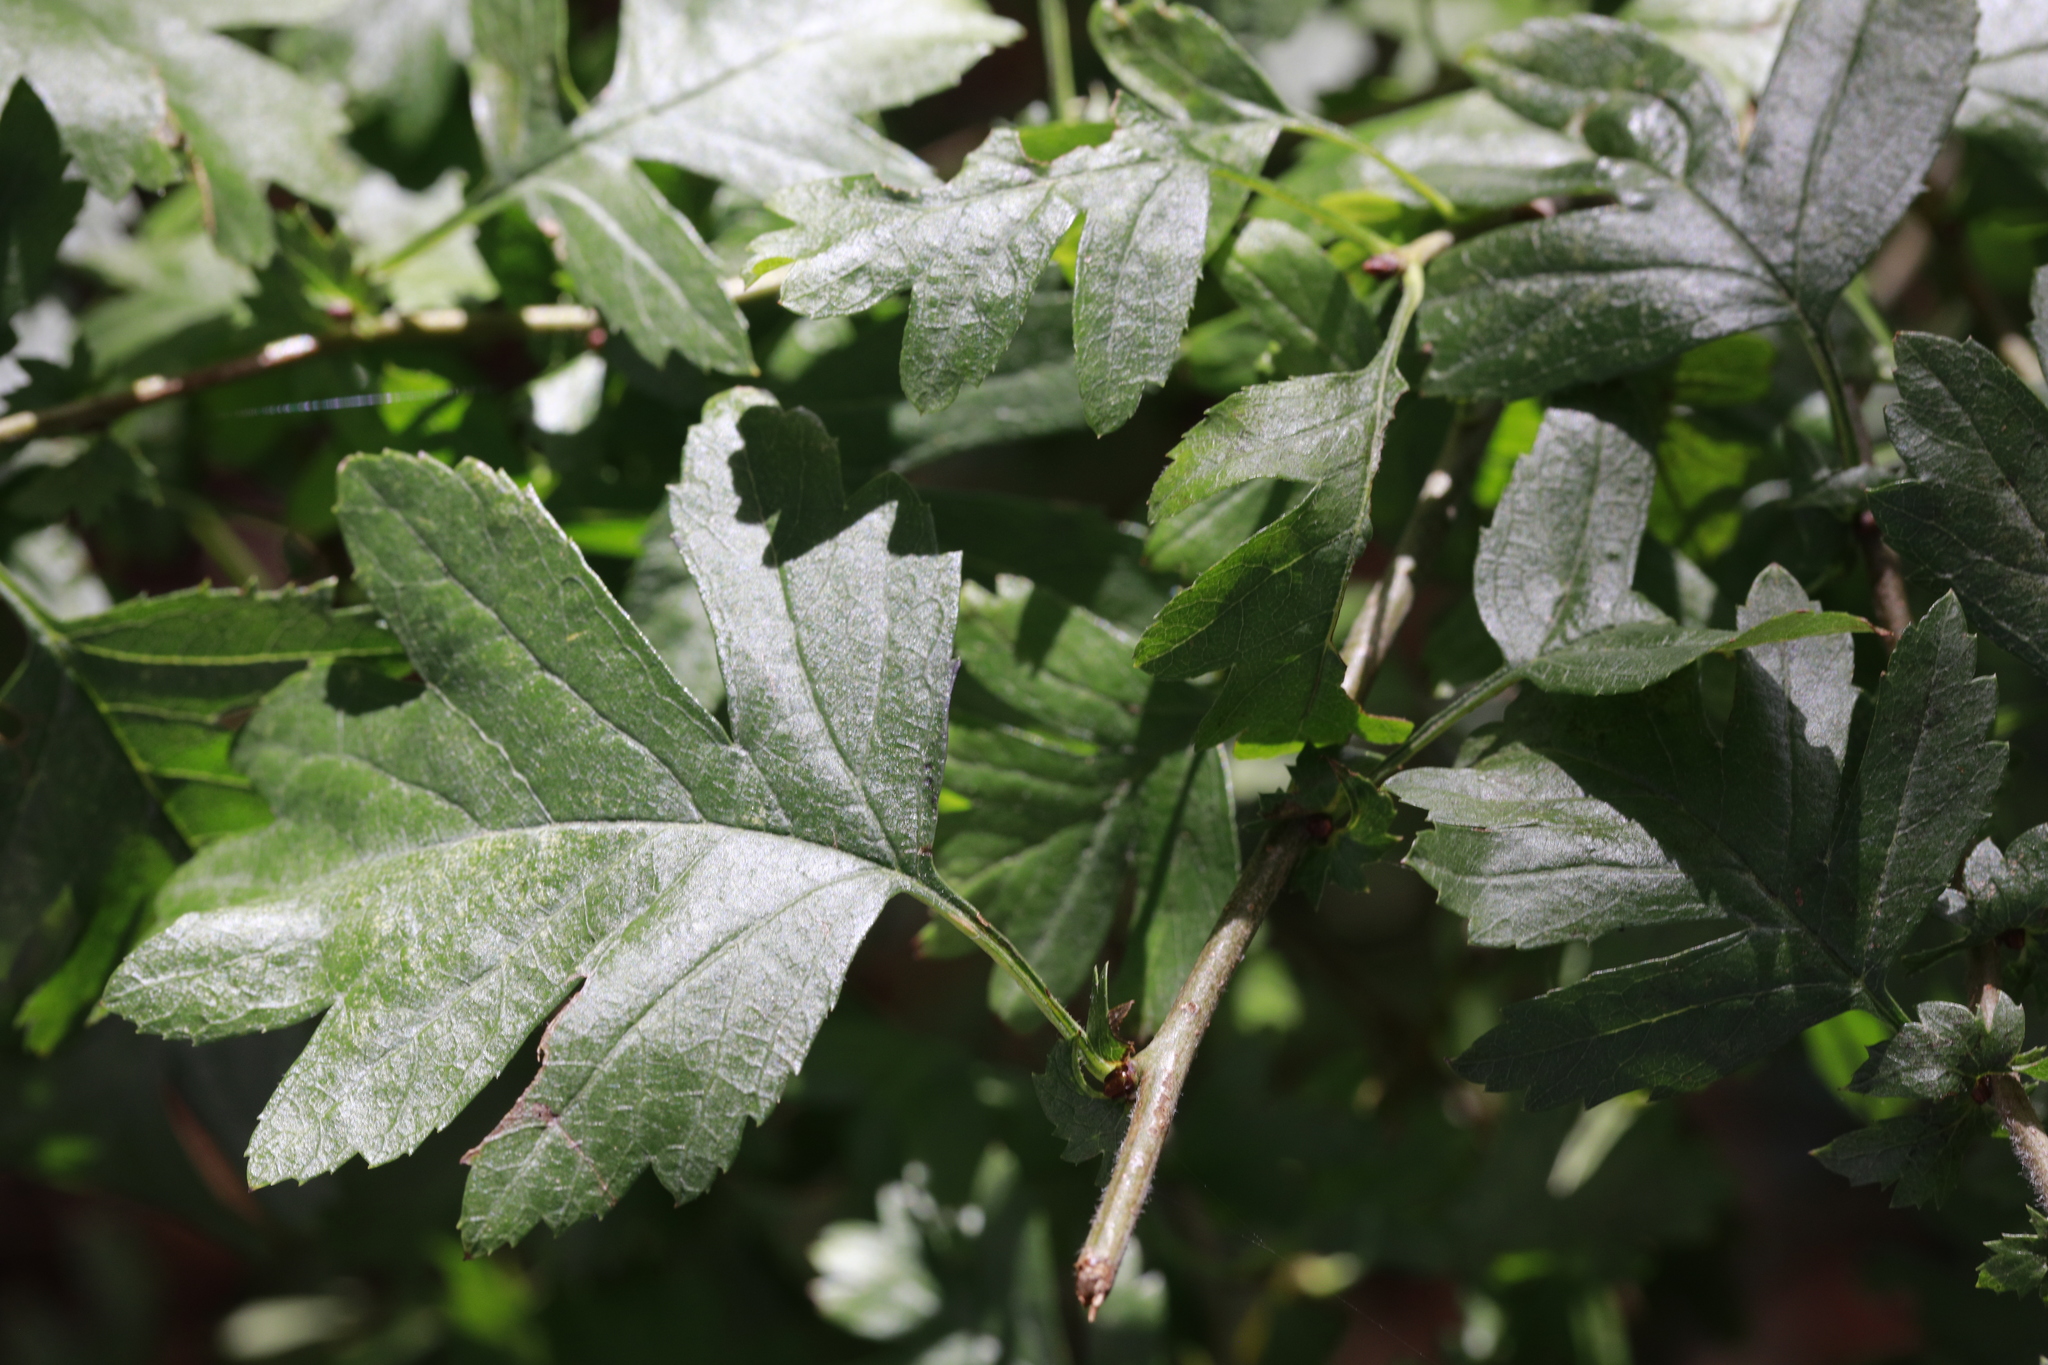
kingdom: Plantae
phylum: Tracheophyta
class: Magnoliopsida
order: Rosales
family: Rosaceae
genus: Crataegus
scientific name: Crataegus monogyna
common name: Hawthorn
